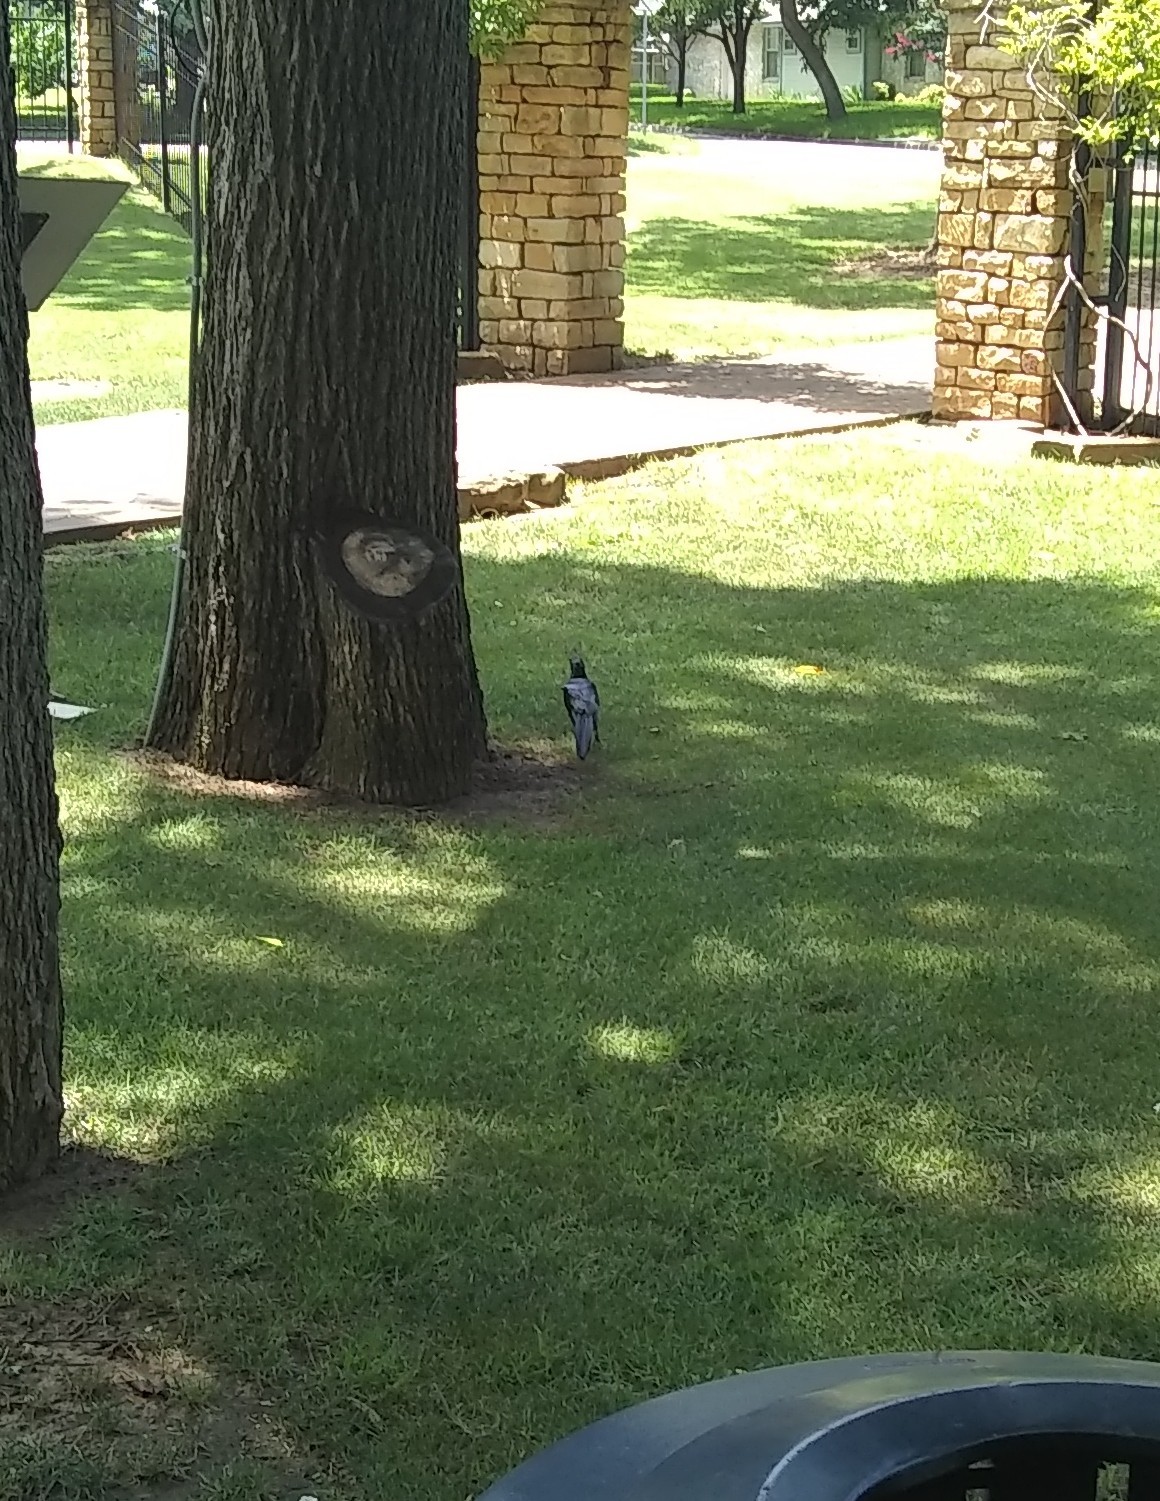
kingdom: Animalia
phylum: Chordata
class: Aves
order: Passeriformes
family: Icteridae
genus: Quiscalus
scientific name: Quiscalus mexicanus
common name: Great-tailed grackle
